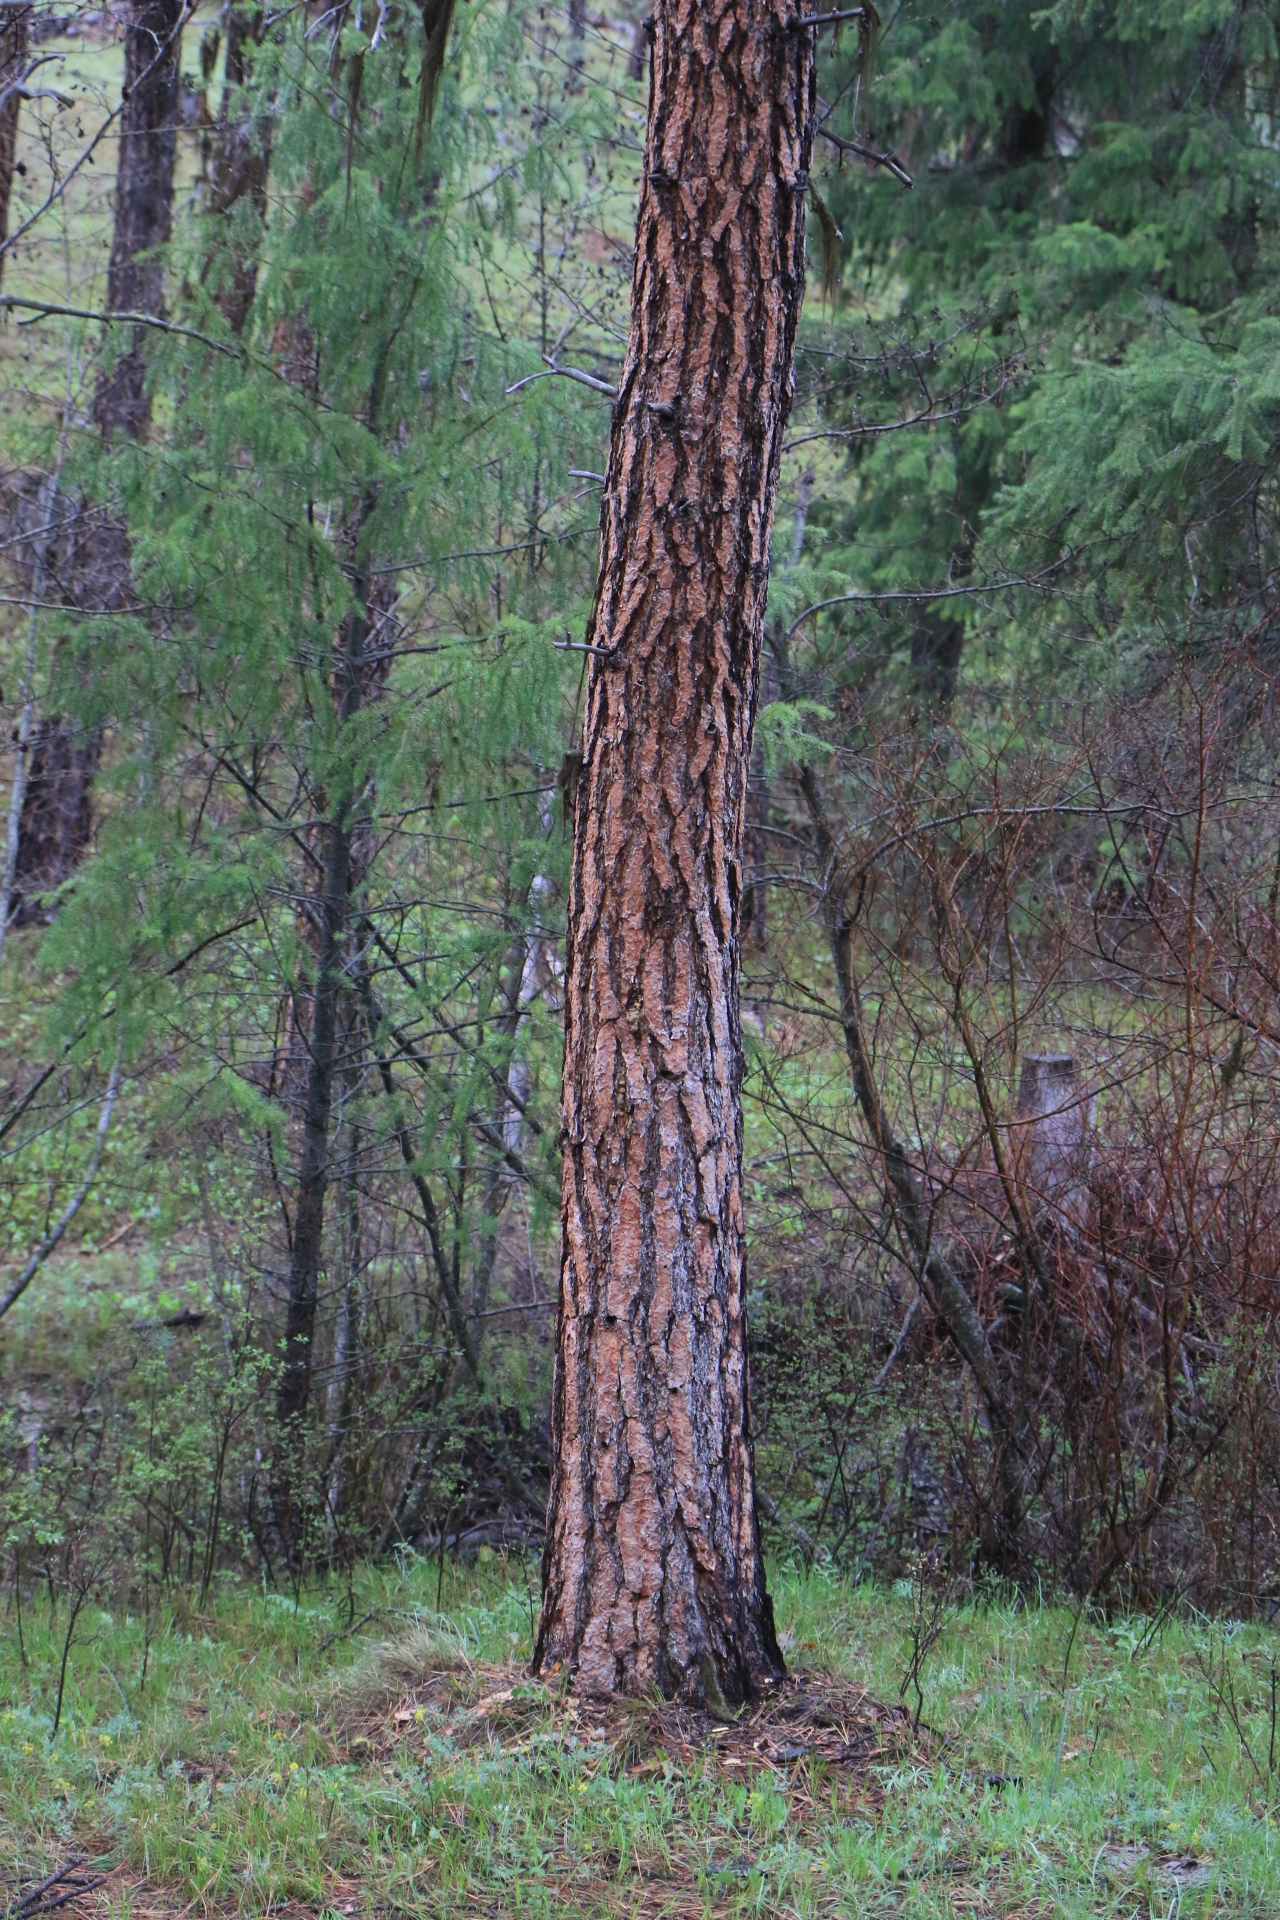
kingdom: Plantae
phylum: Tracheophyta
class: Pinopsida
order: Pinales
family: Pinaceae
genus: Pinus
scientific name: Pinus ponderosa
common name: Western yellow-pine
